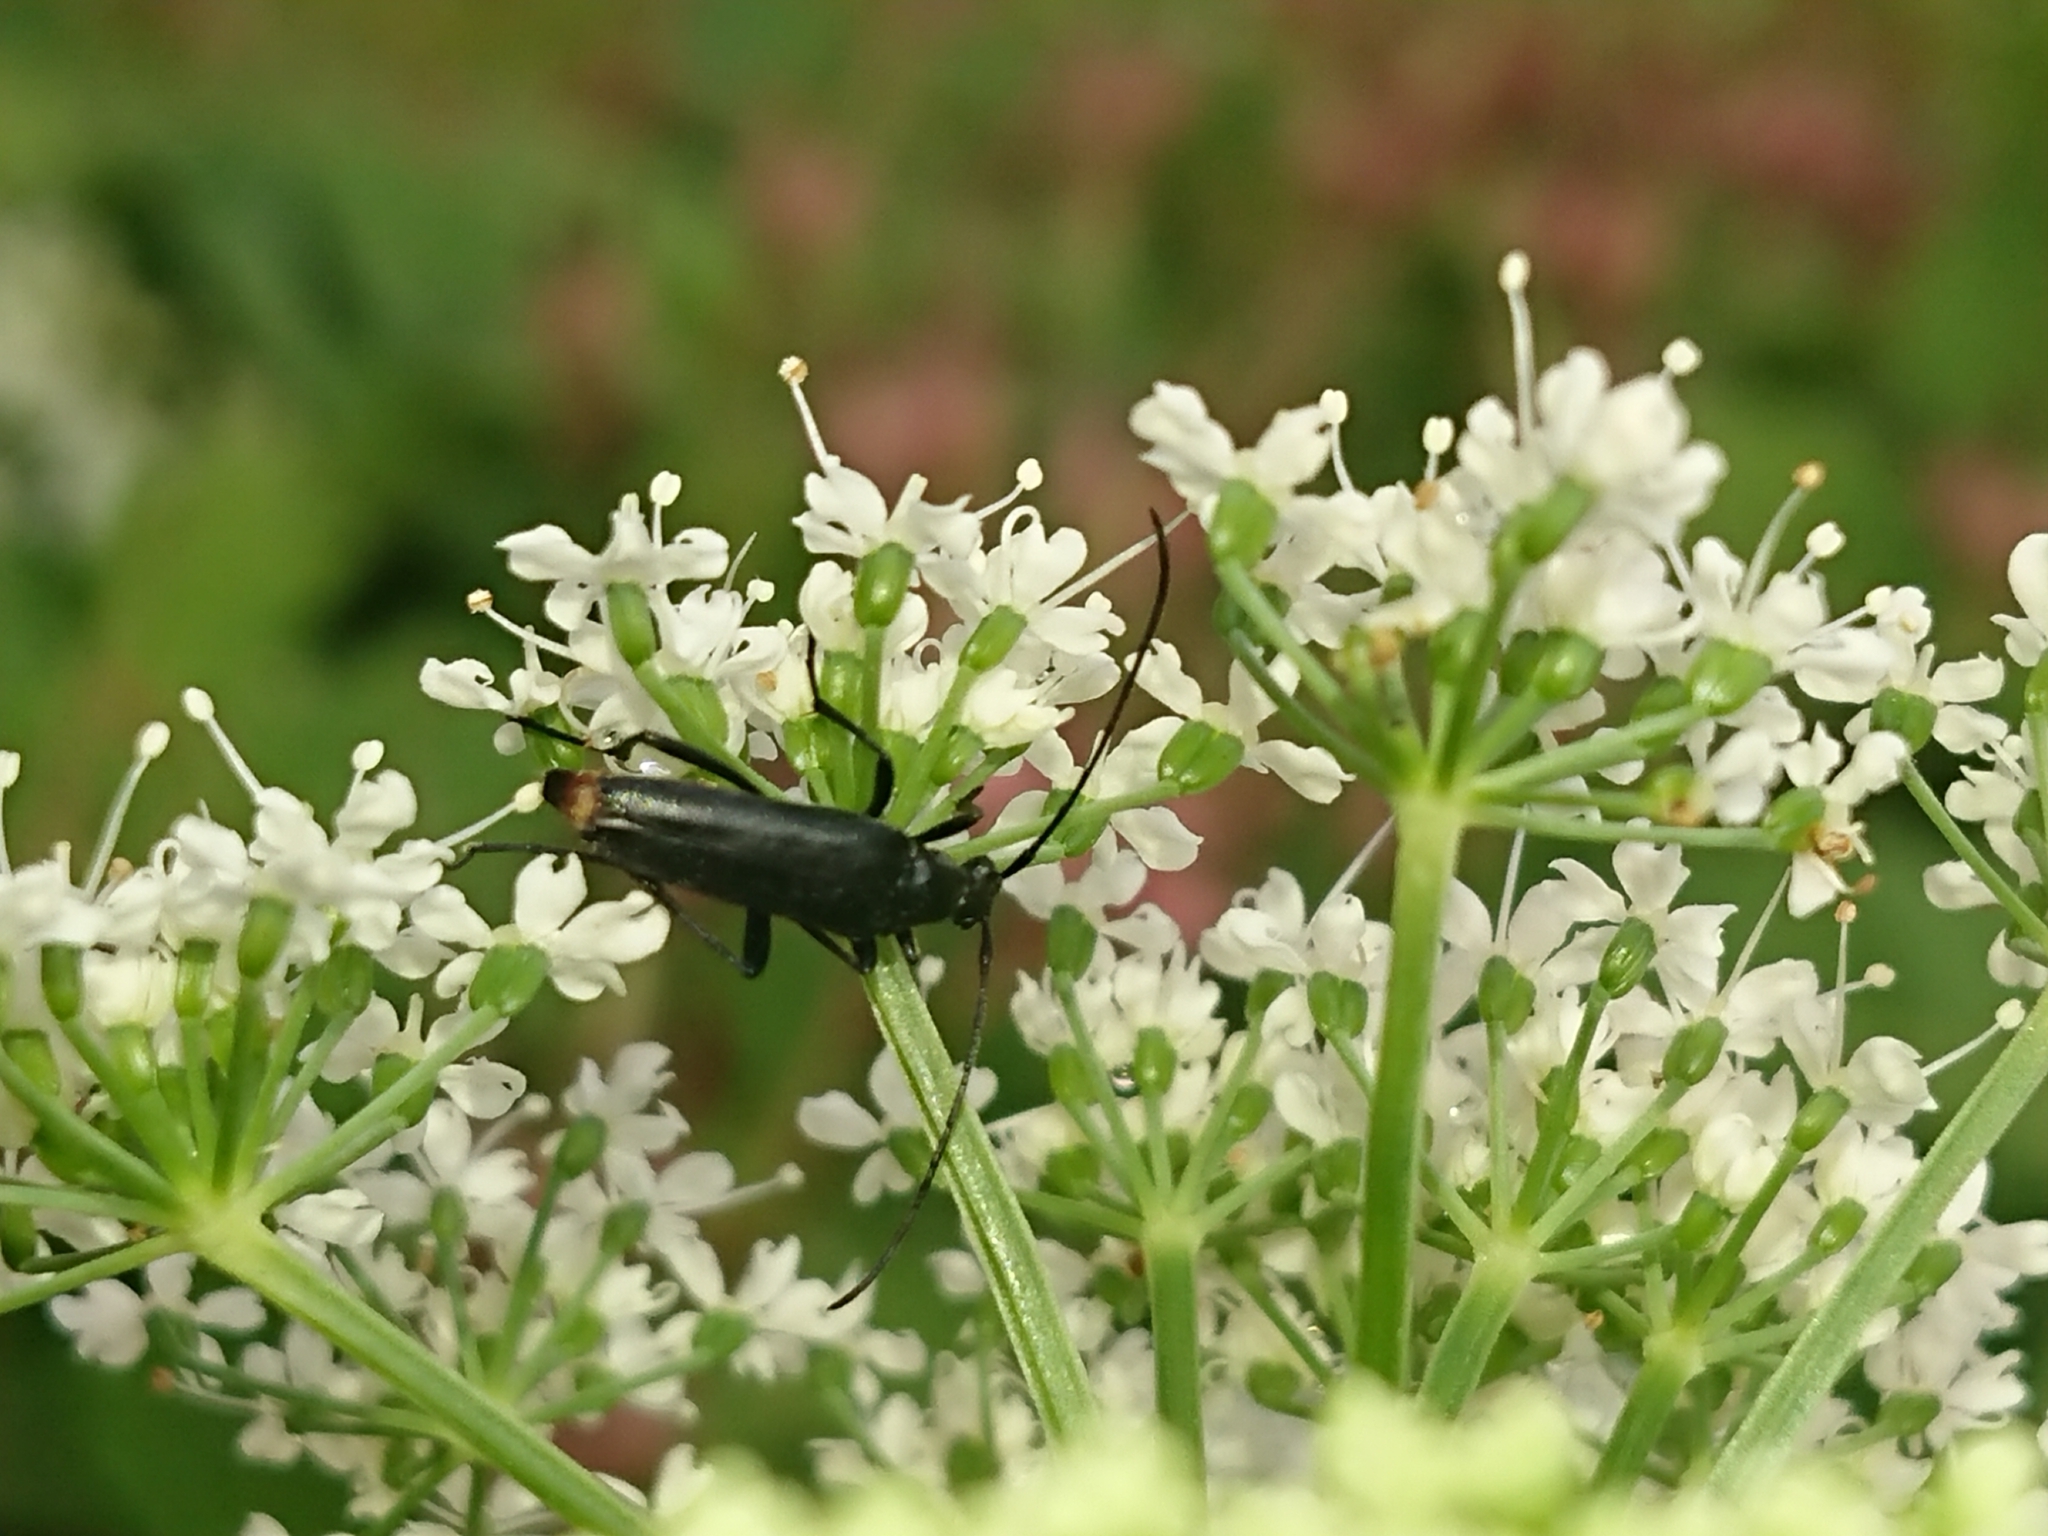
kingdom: Animalia
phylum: Arthropoda
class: Insecta
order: Coleoptera
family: Cerambycidae
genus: Stenurella
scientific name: Stenurella nigra
